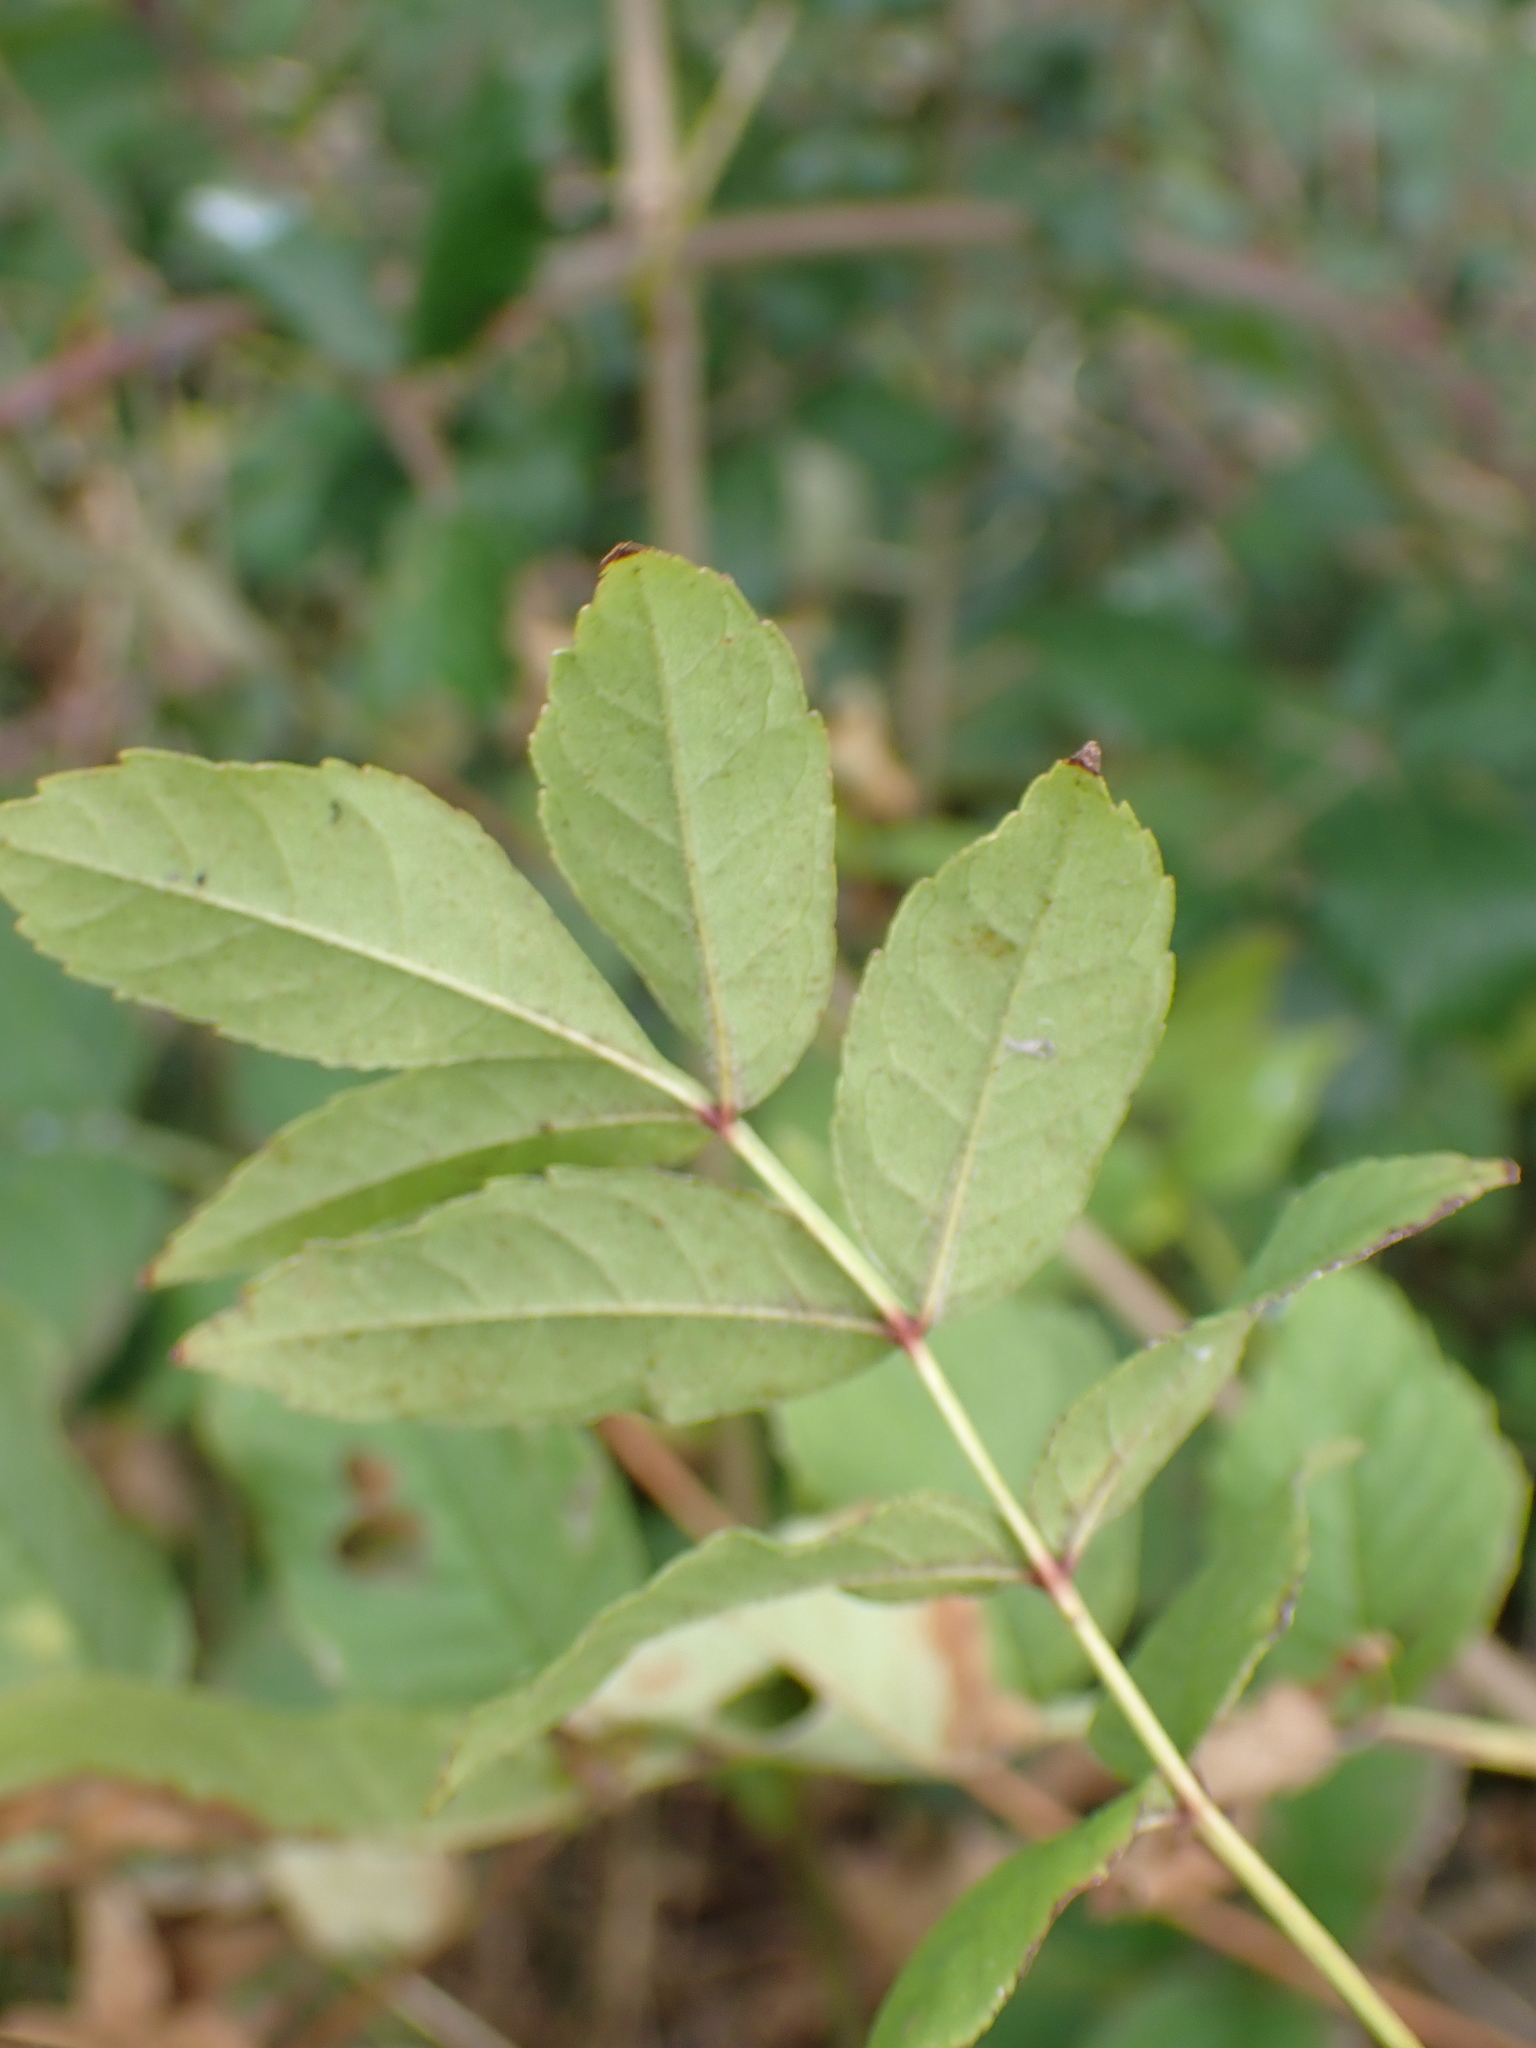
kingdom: Plantae
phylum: Tracheophyta
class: Magnoliopsida
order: Lamiales
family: Oleaceae
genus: Fraxinus
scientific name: Fraxinus excelsior
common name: European ash
